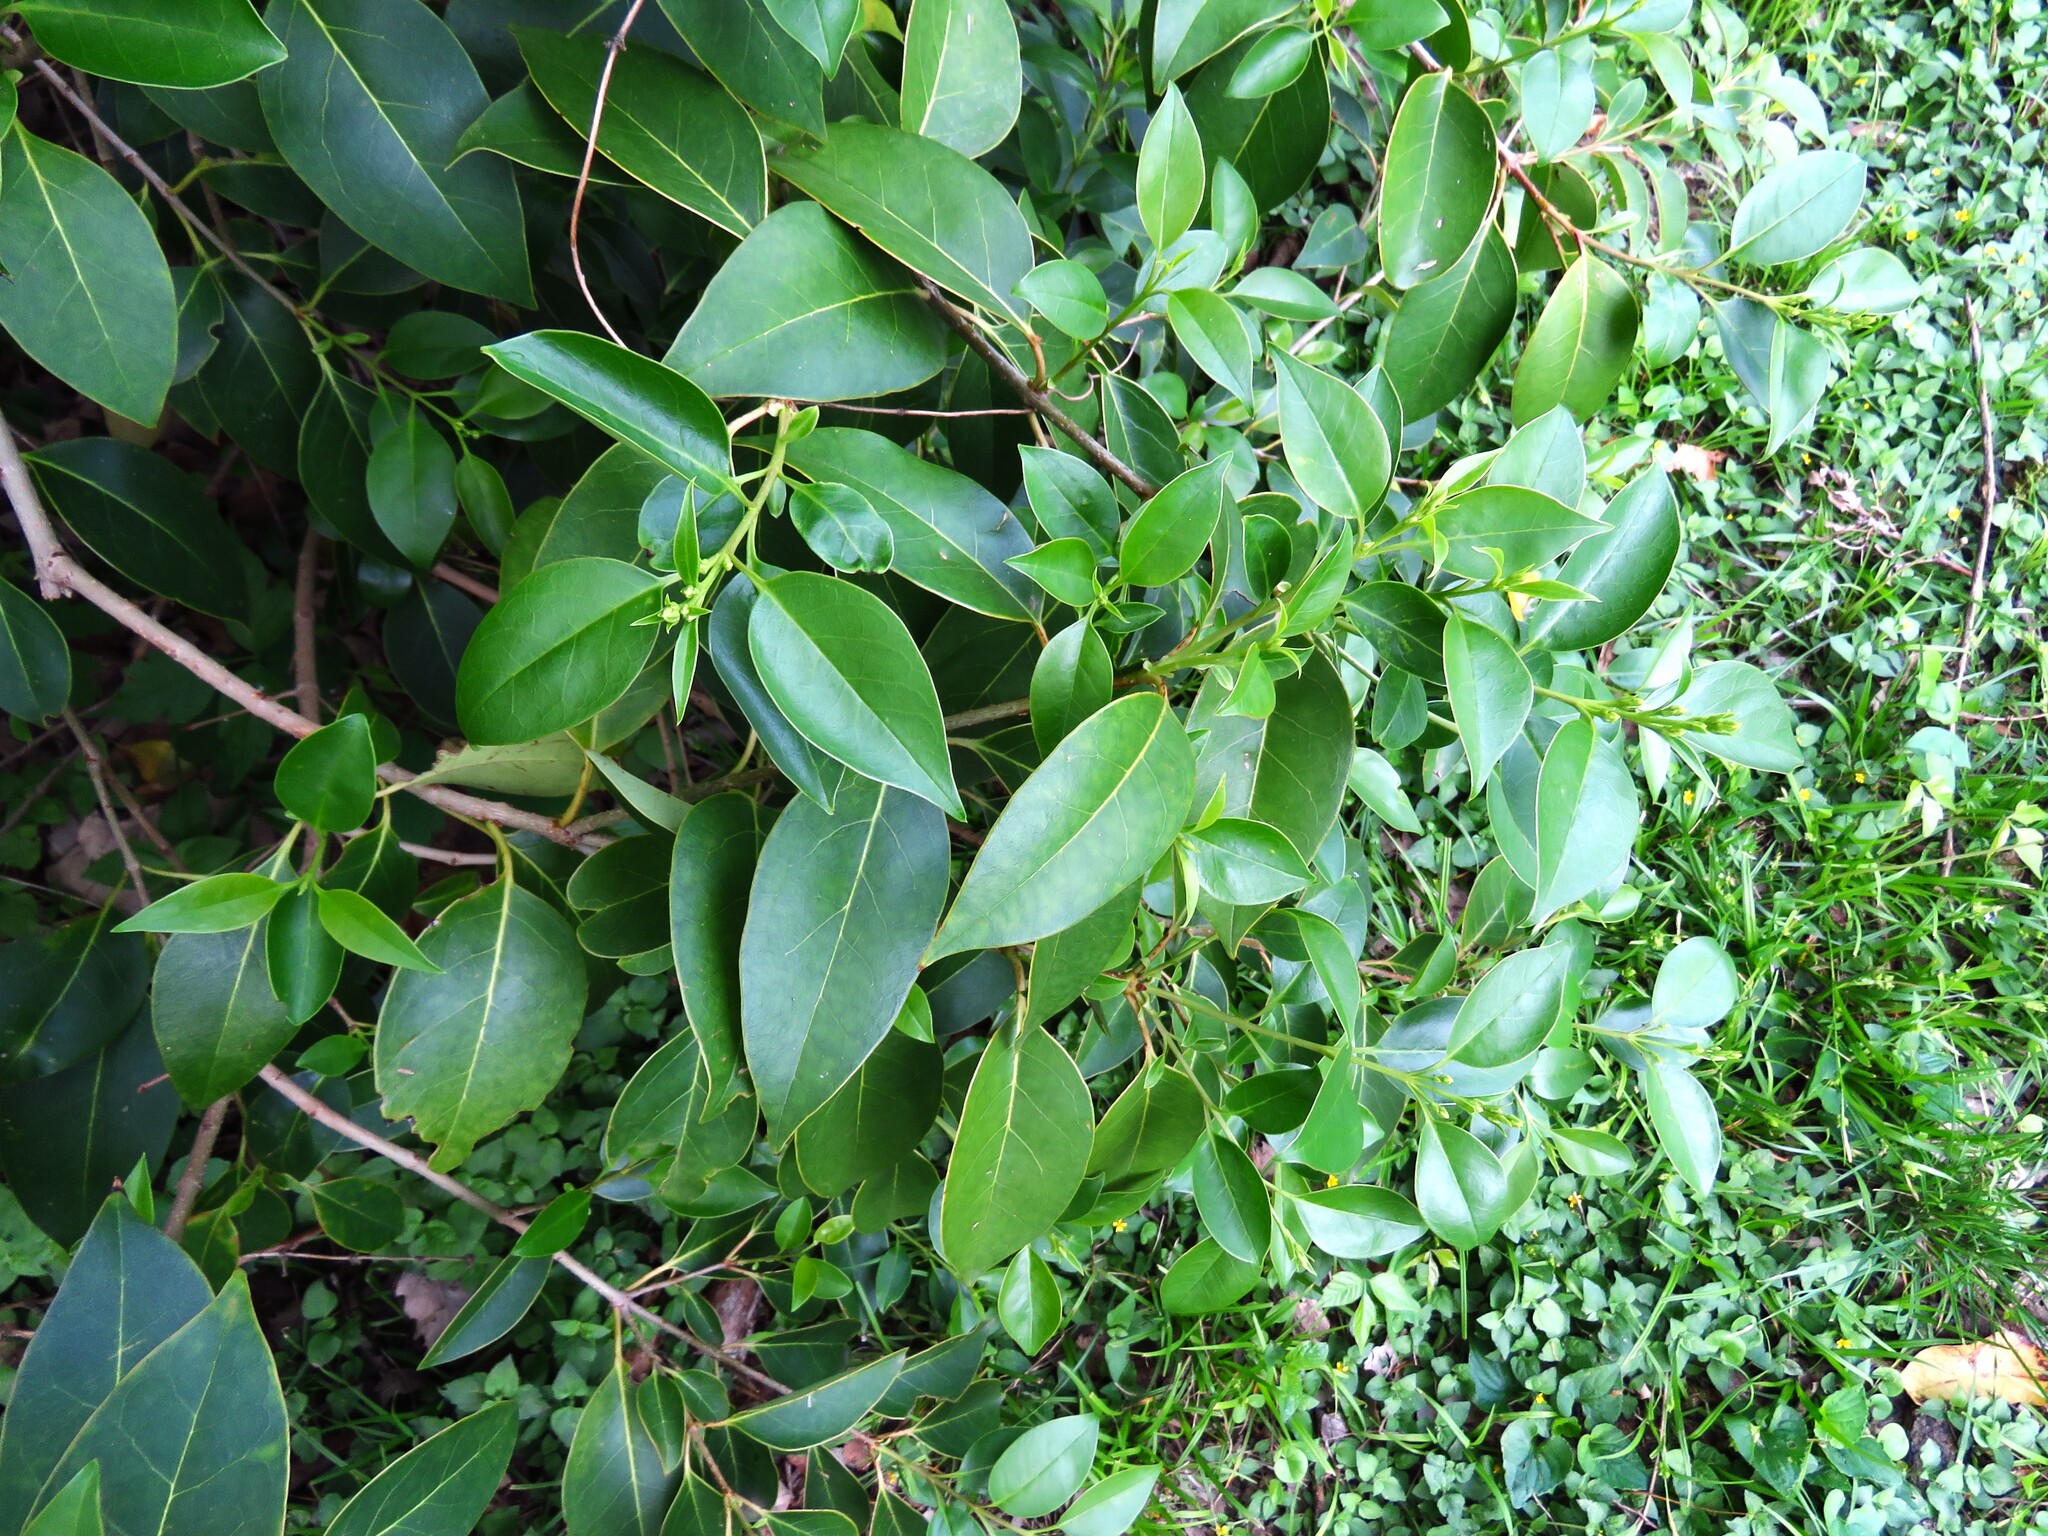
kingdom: Plantae
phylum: Tracheophyta
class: Magnoliopsida
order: Lamiales
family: Oleaceae
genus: Ligustrum
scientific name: Ligustrum lucidum
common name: Glossy privet
